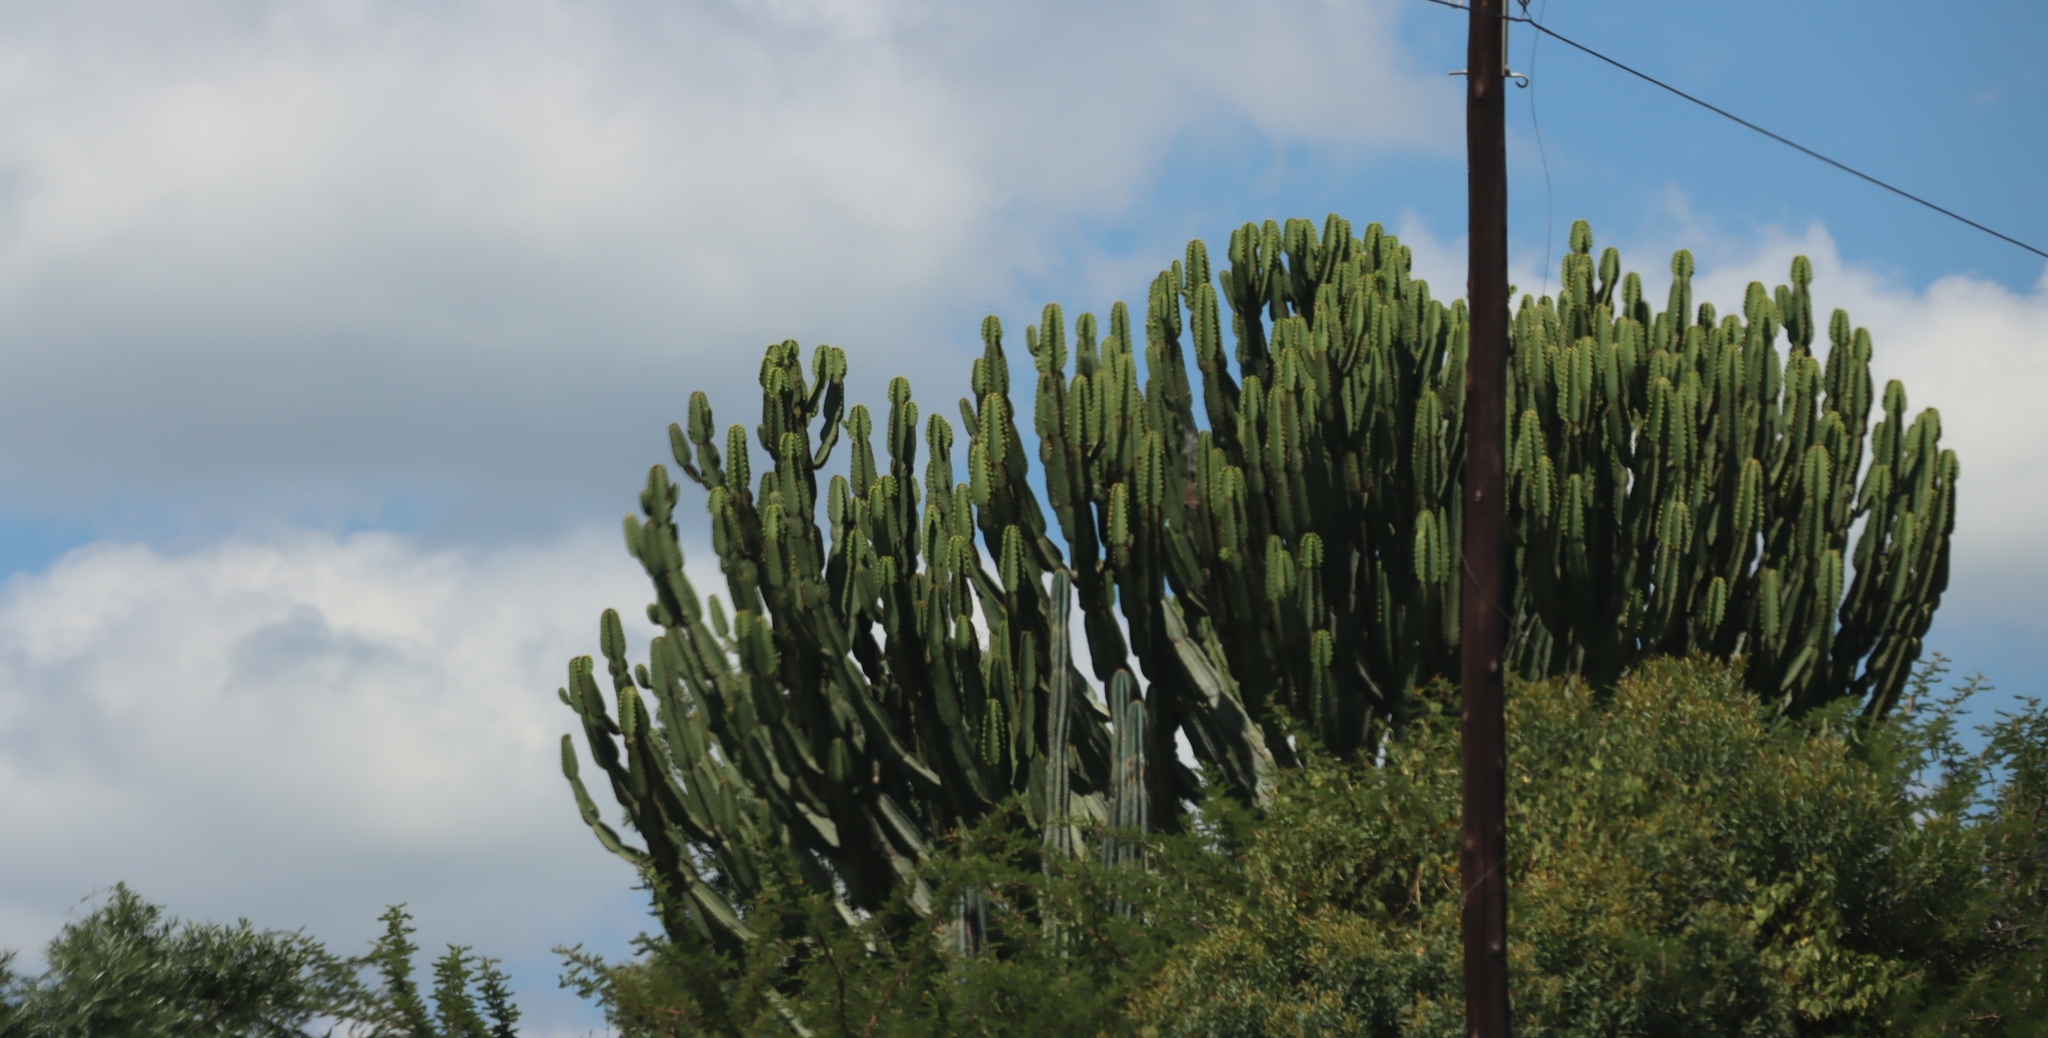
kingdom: Plantae
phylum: Tracheophyta
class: Magnoliopsida
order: Malpighiales
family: Euphorbiaceae
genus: Euphorbia
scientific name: Euphorbia ingens
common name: Cactus spurge
